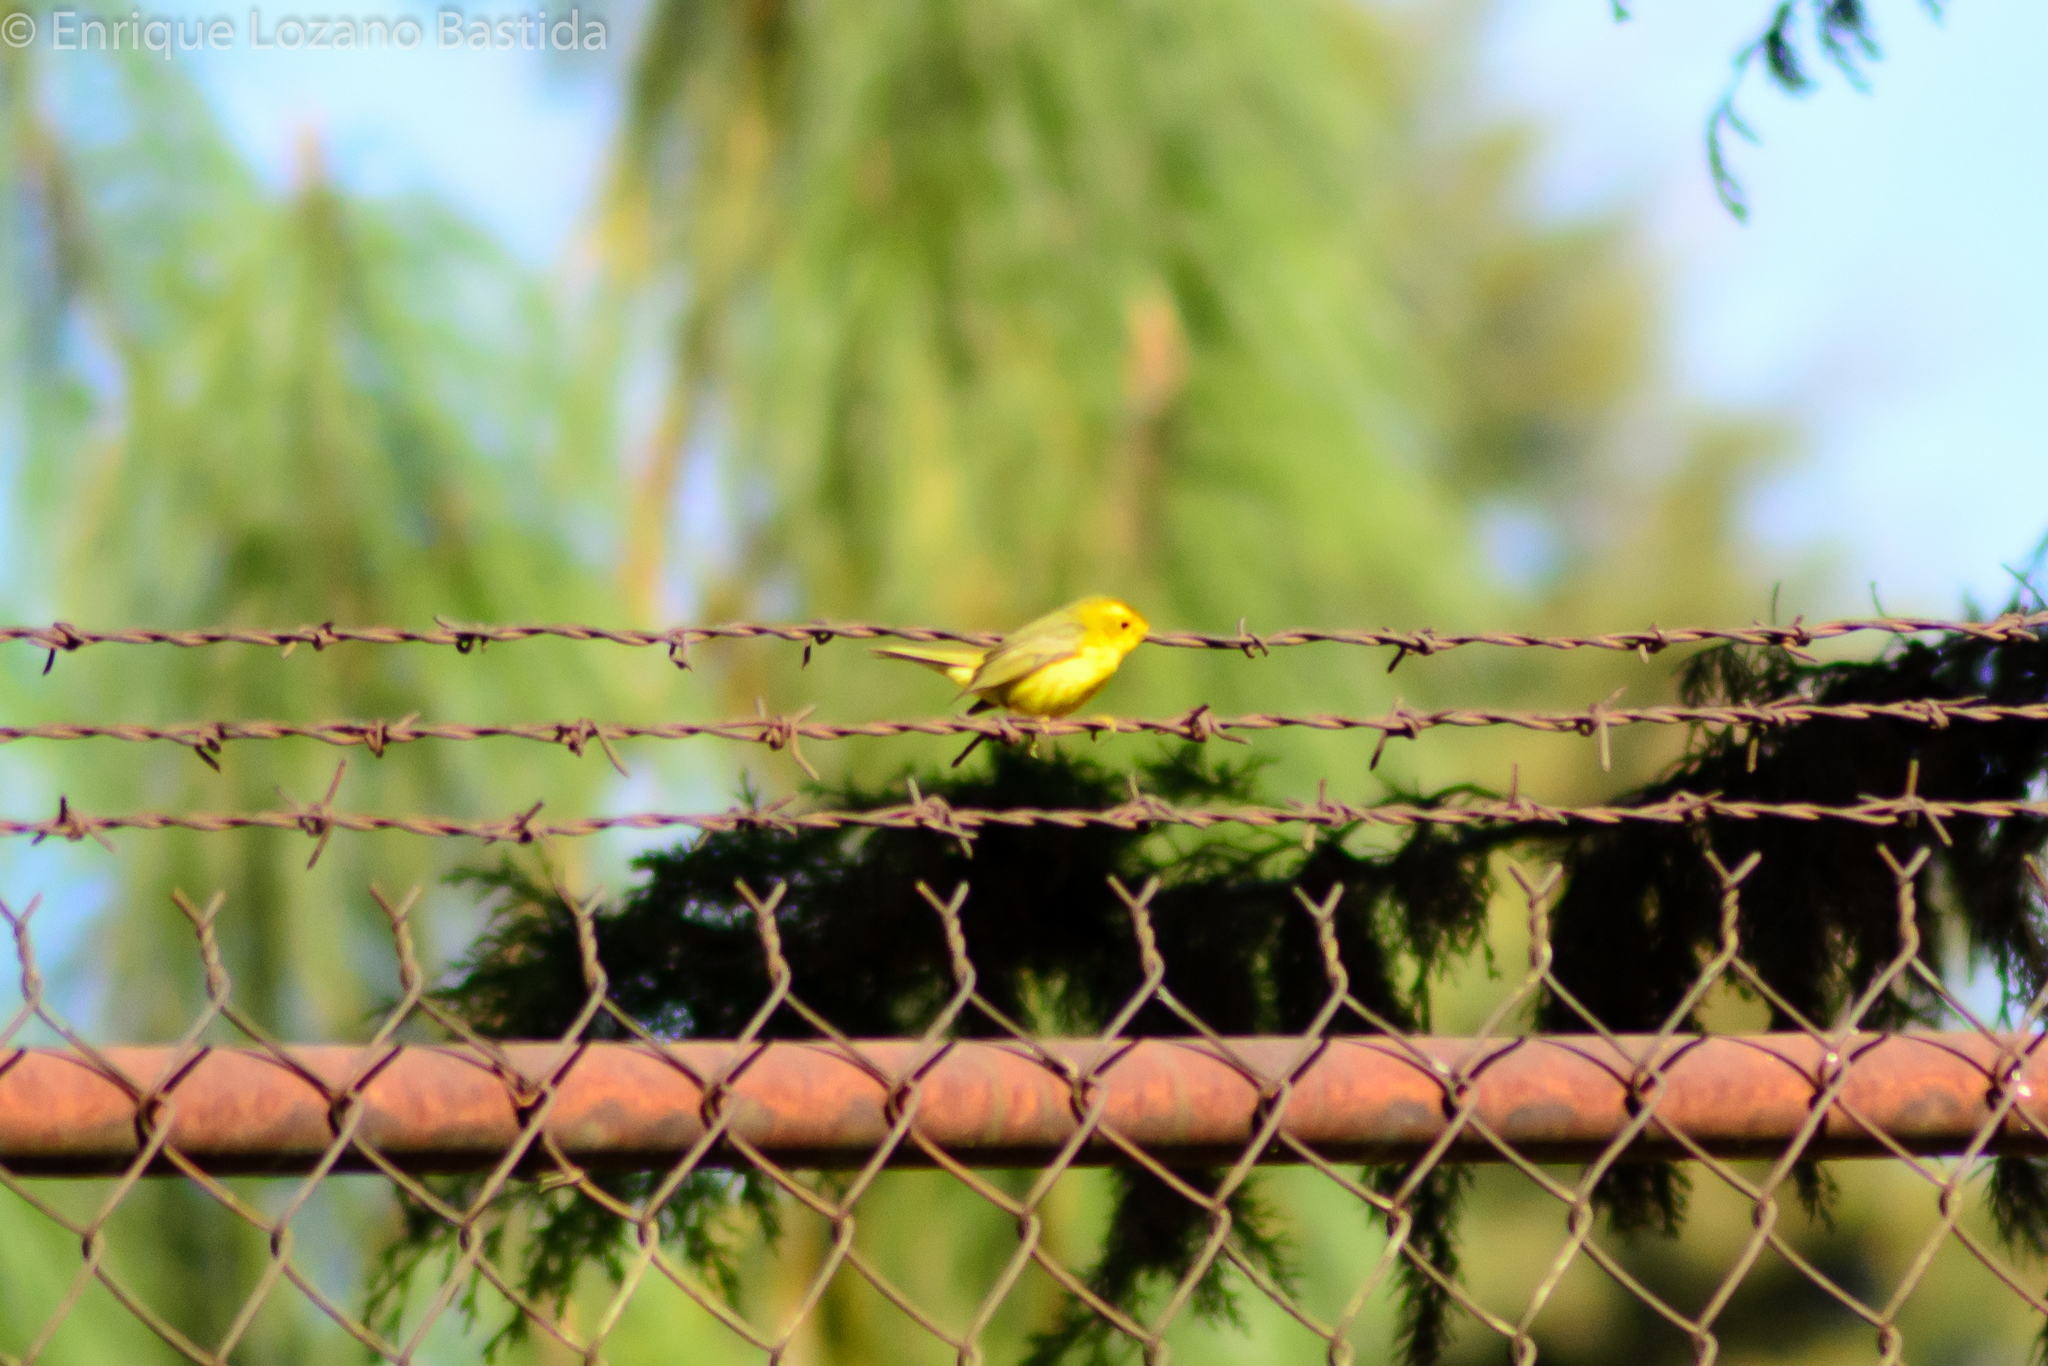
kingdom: Animalia
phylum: Chordata
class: Aves
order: Passeriformes
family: Parulidae
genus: Cardellina
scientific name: Cardellina pusilla
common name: Wilson's warbler
